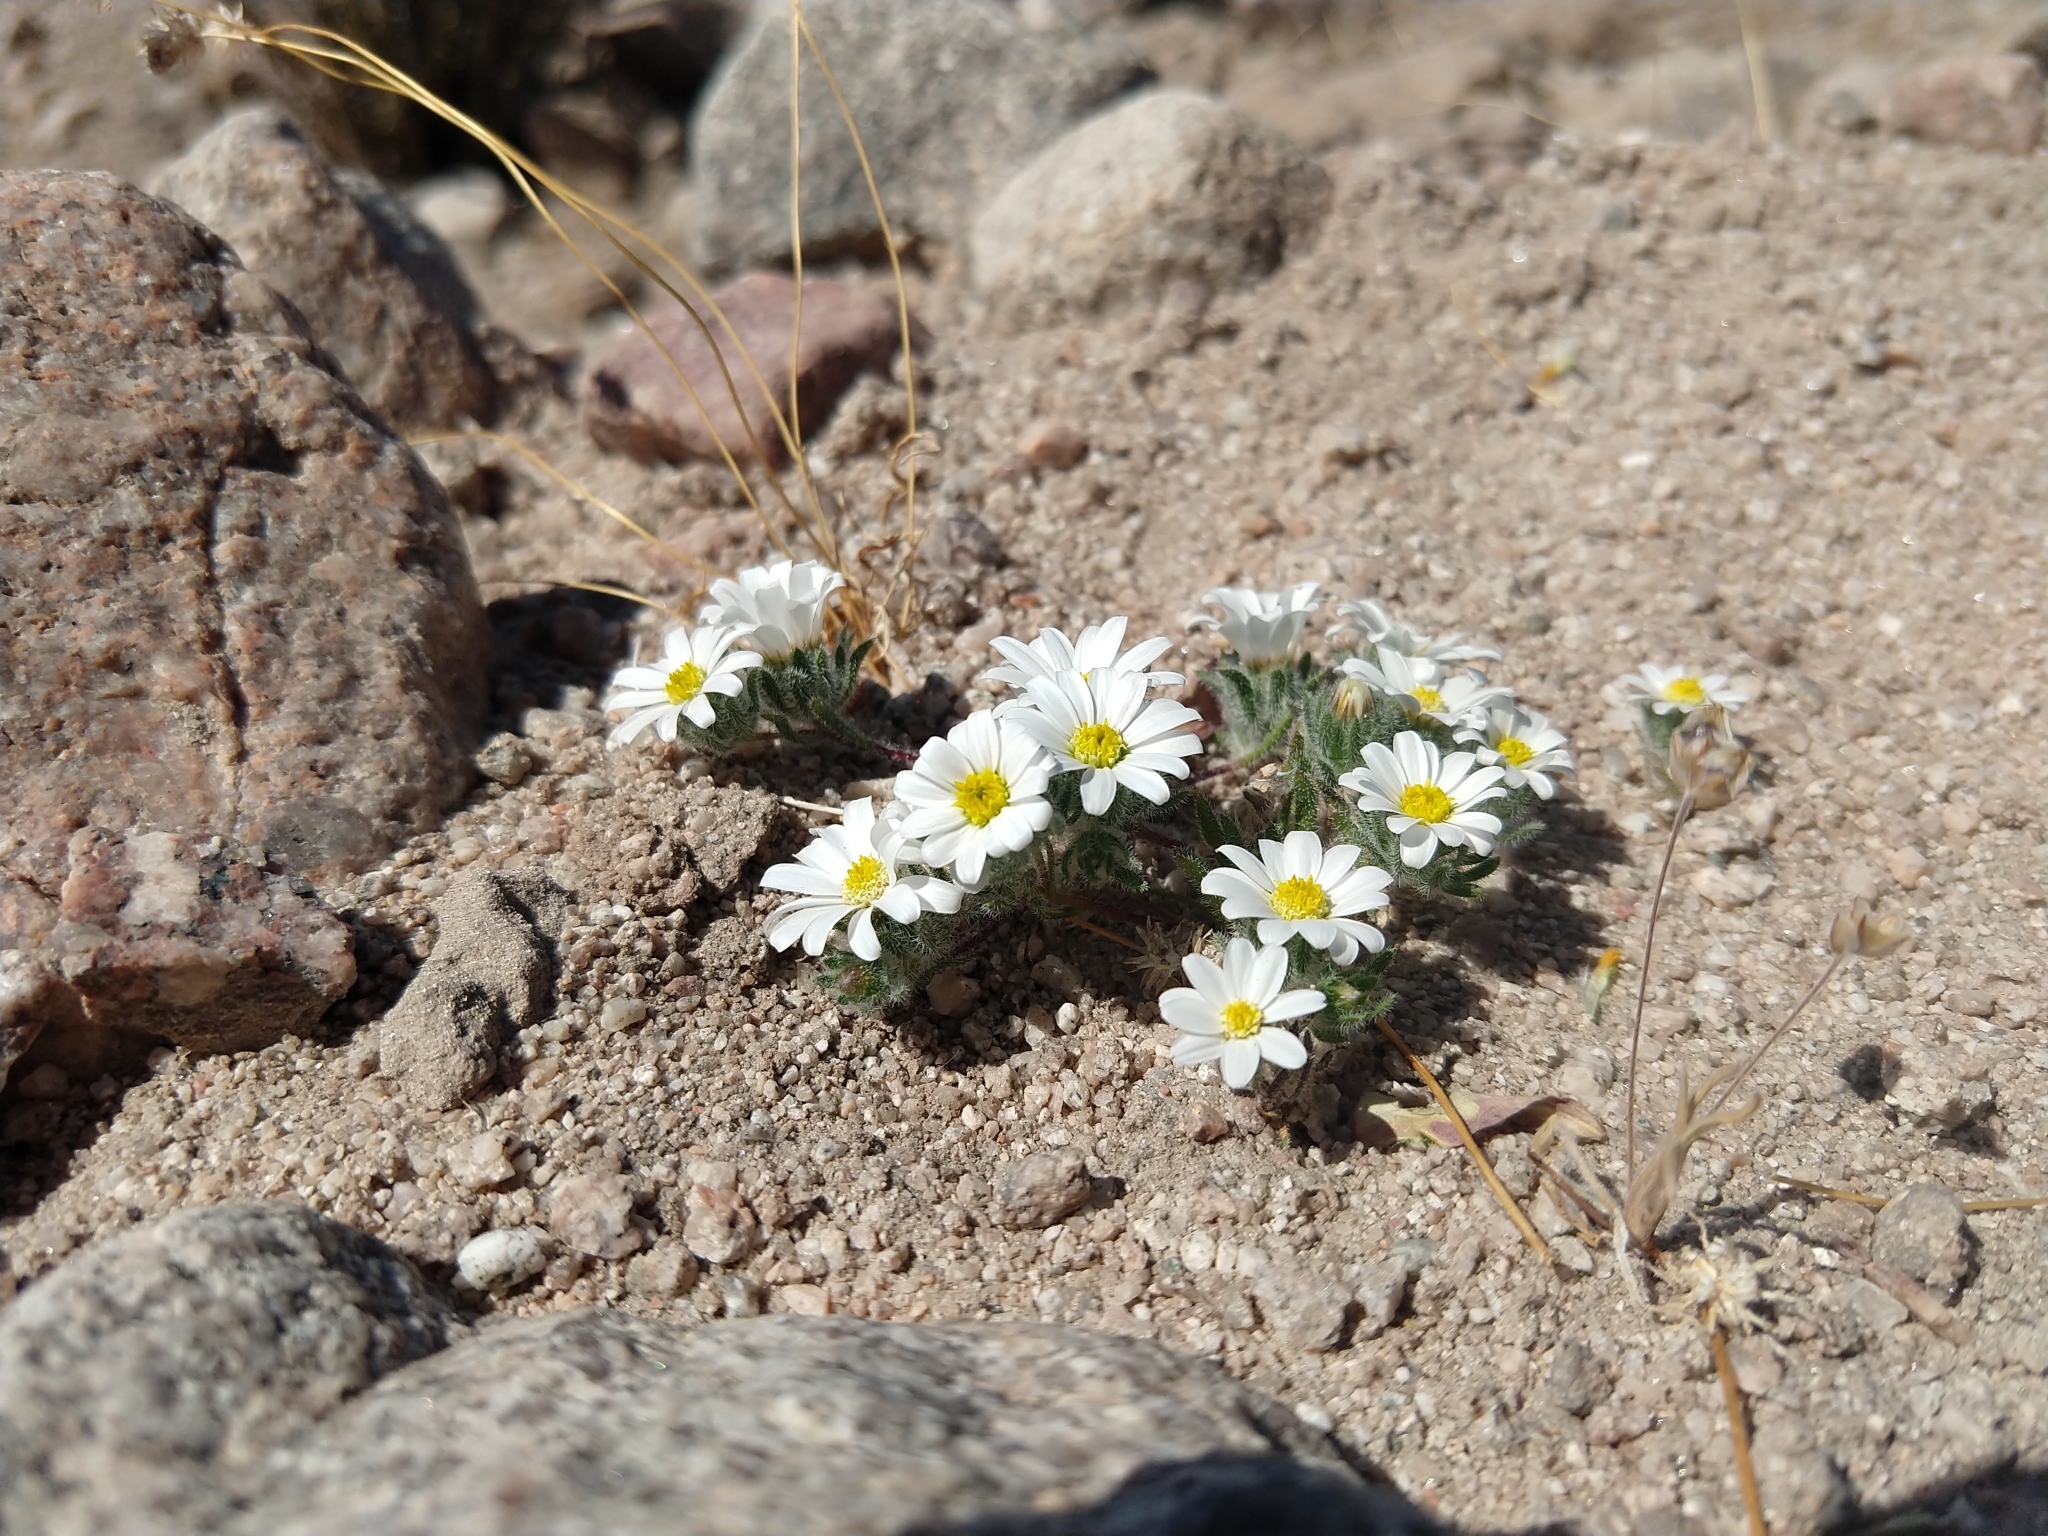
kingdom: Plantae
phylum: Tracheophyta
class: Magnoliopsida
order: Asterales
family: Asteraceae
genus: Monoptilon
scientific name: Monoptilon bellioides
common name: Bristly desertstar
